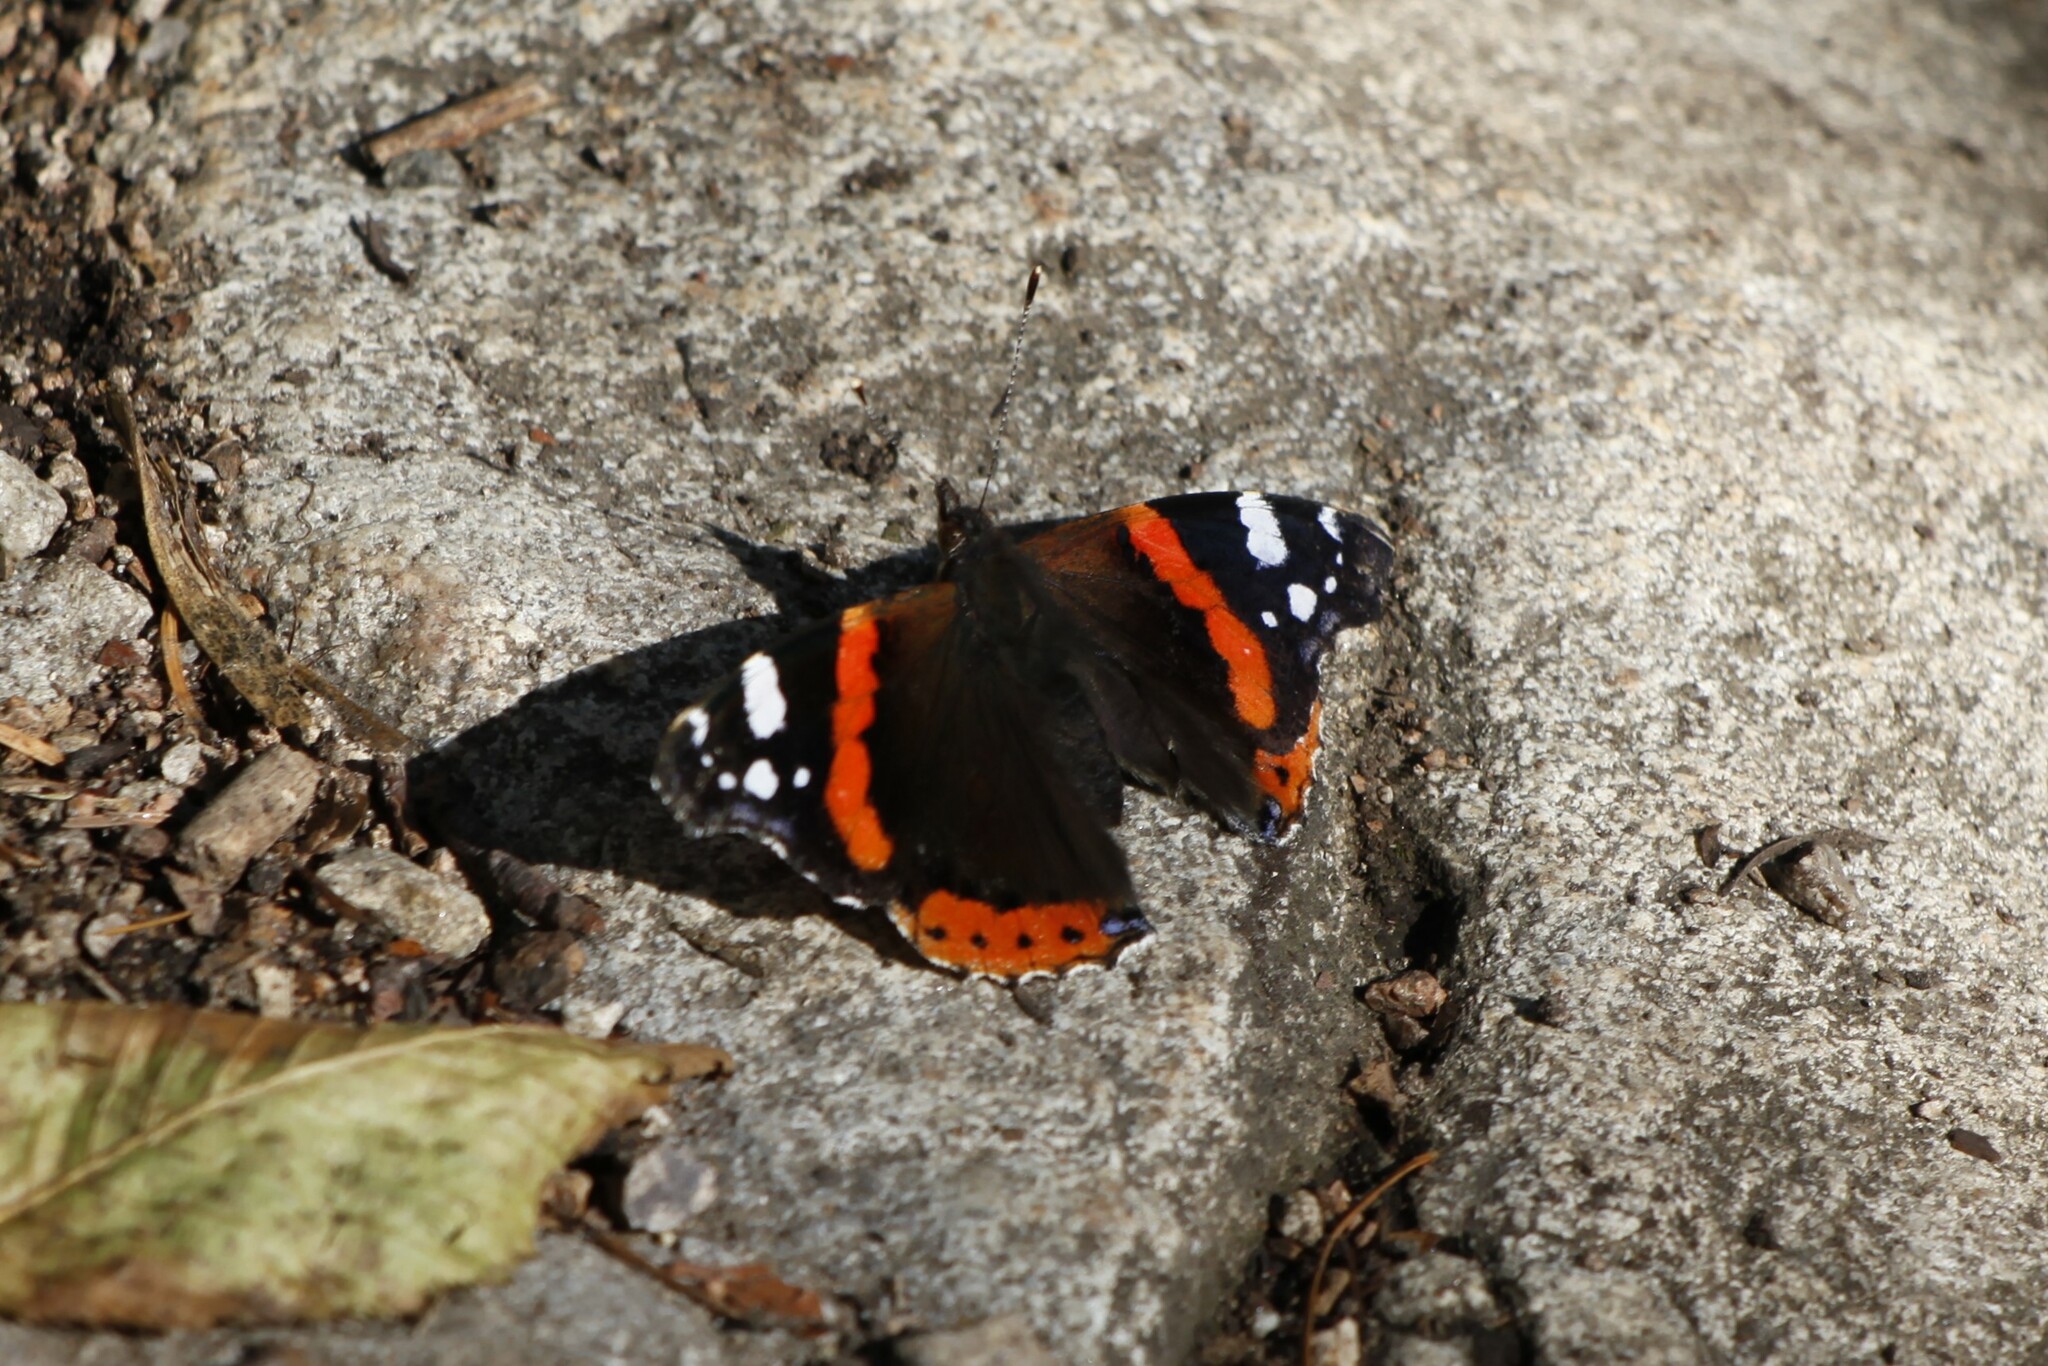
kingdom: Animalia
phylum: Arthropoda
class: Insecta
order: Lepidoptera
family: Nymphalidae
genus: Vanessa
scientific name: Vanessa atalanta
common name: Red admiral
